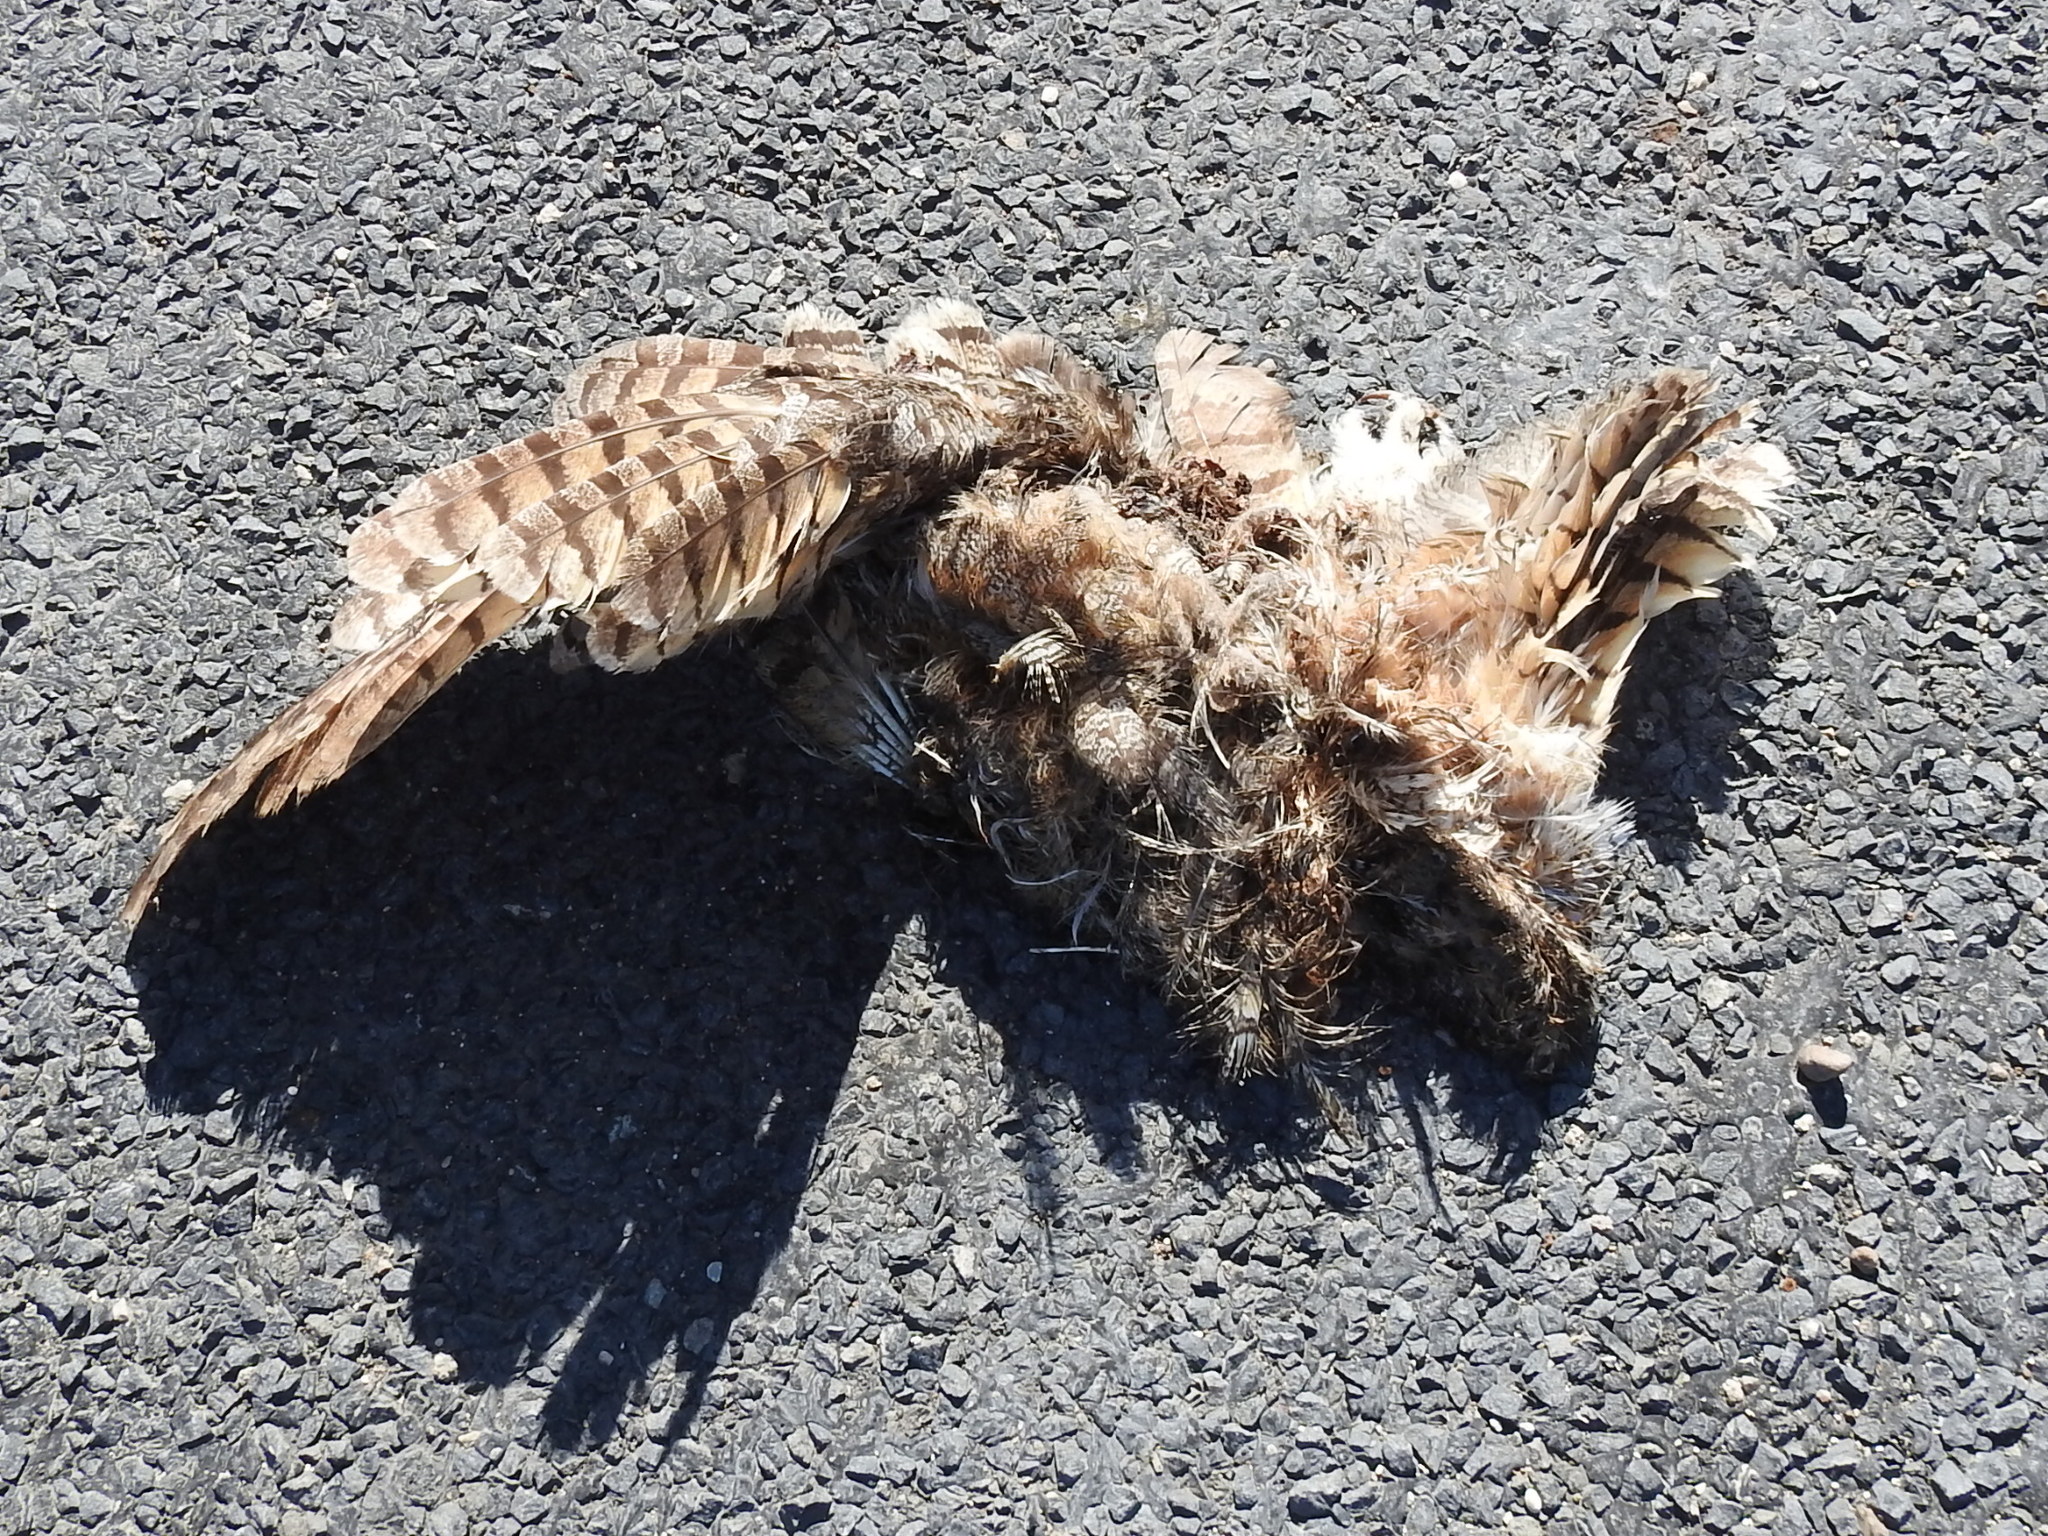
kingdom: Animalia
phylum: Chordata
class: Aves
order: Strigiformes
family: Strigidae
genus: Bubo
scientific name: Bubo virginianus
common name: Great horned owl
